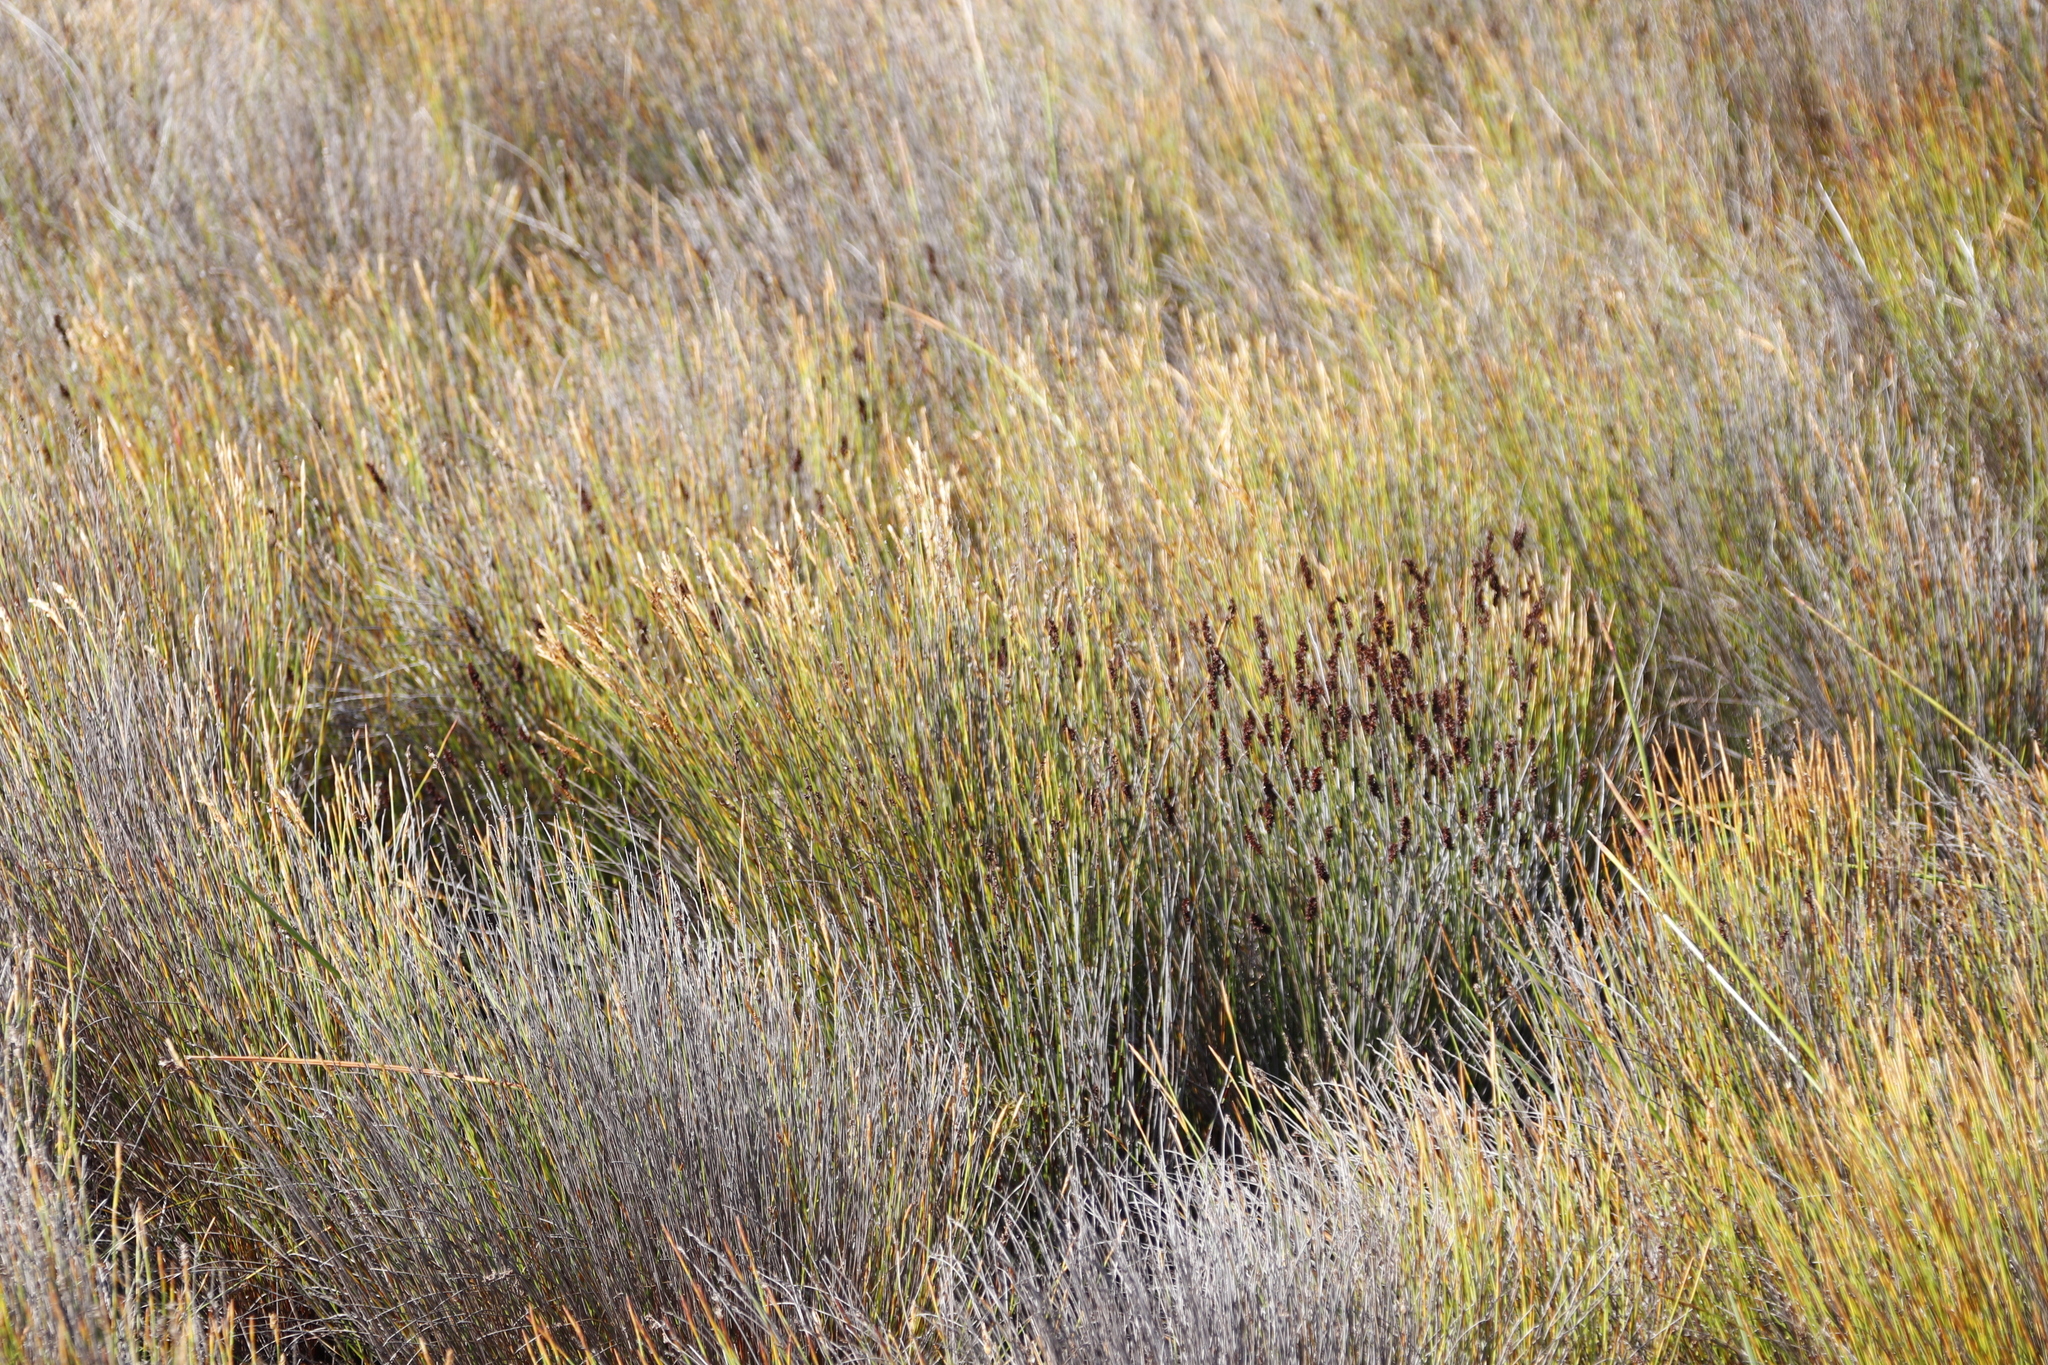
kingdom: Plantae
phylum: Tracheophyta
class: Liliopsida
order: Poales
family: Restionaceae
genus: Elegia
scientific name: Elegia nuda
